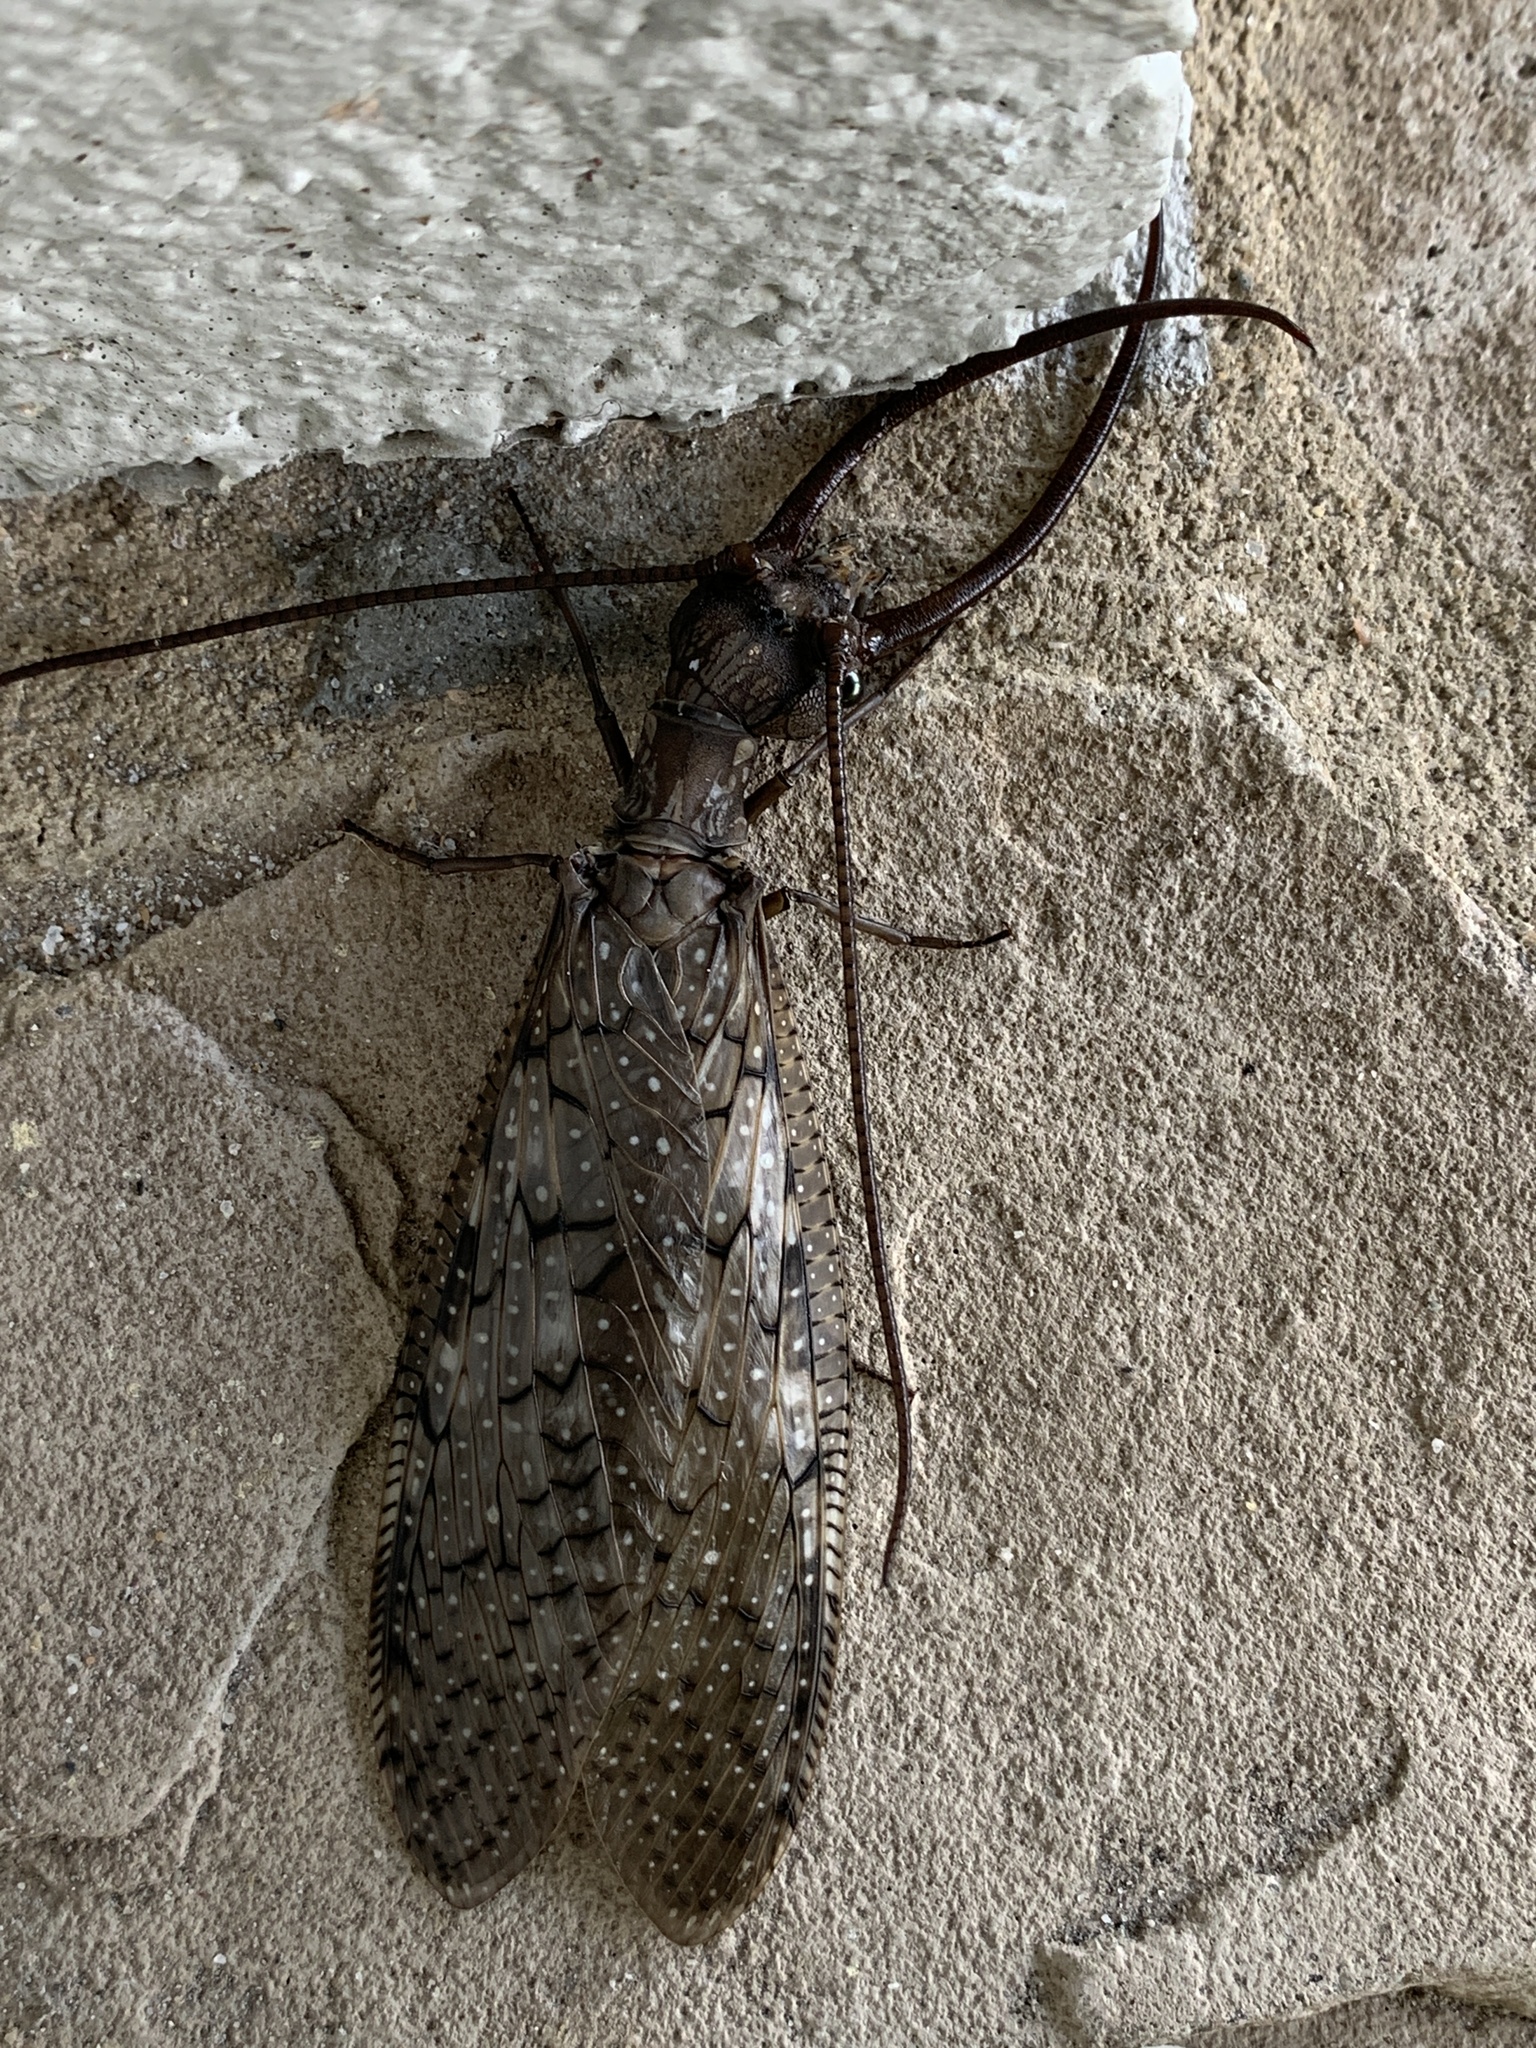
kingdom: Animalia
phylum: Arthropoda
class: Insecta
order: Megaloptera
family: Corydalidae
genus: Corydalus
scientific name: Corydalus cornutus
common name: Dobsonfly
